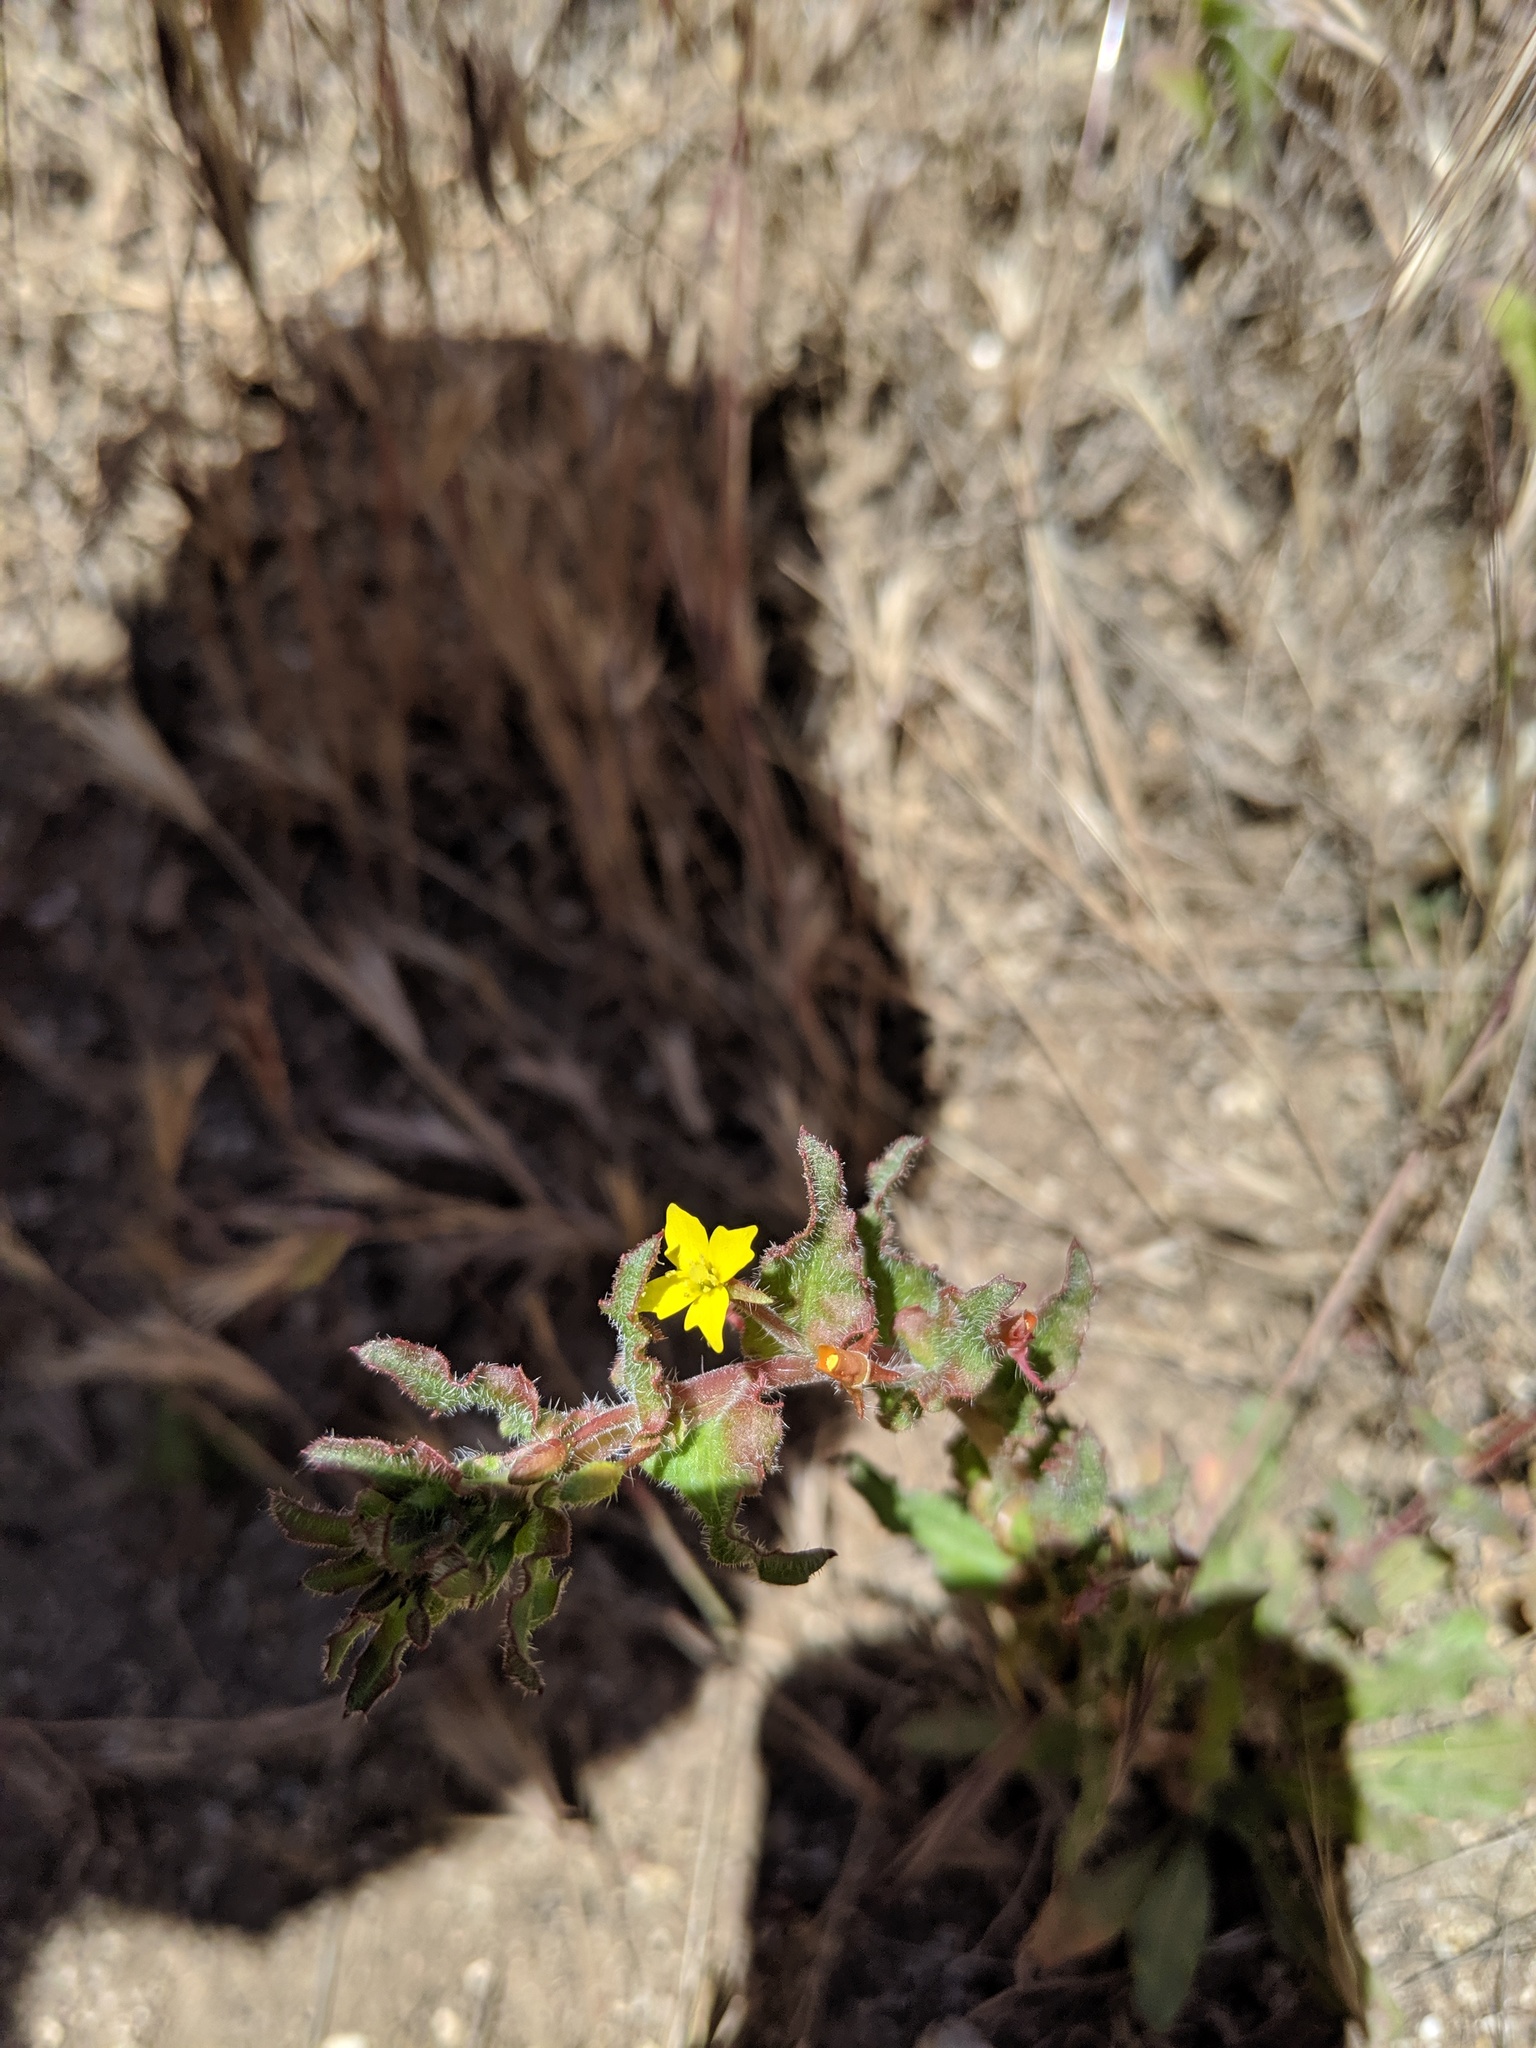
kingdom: Plantae
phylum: Tracheophyta
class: Magnoliopsida
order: Myrtales
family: Onagraceae
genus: Camissoniopsis
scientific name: Camissoniopsis hirtella
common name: Santa cruz island suncup
